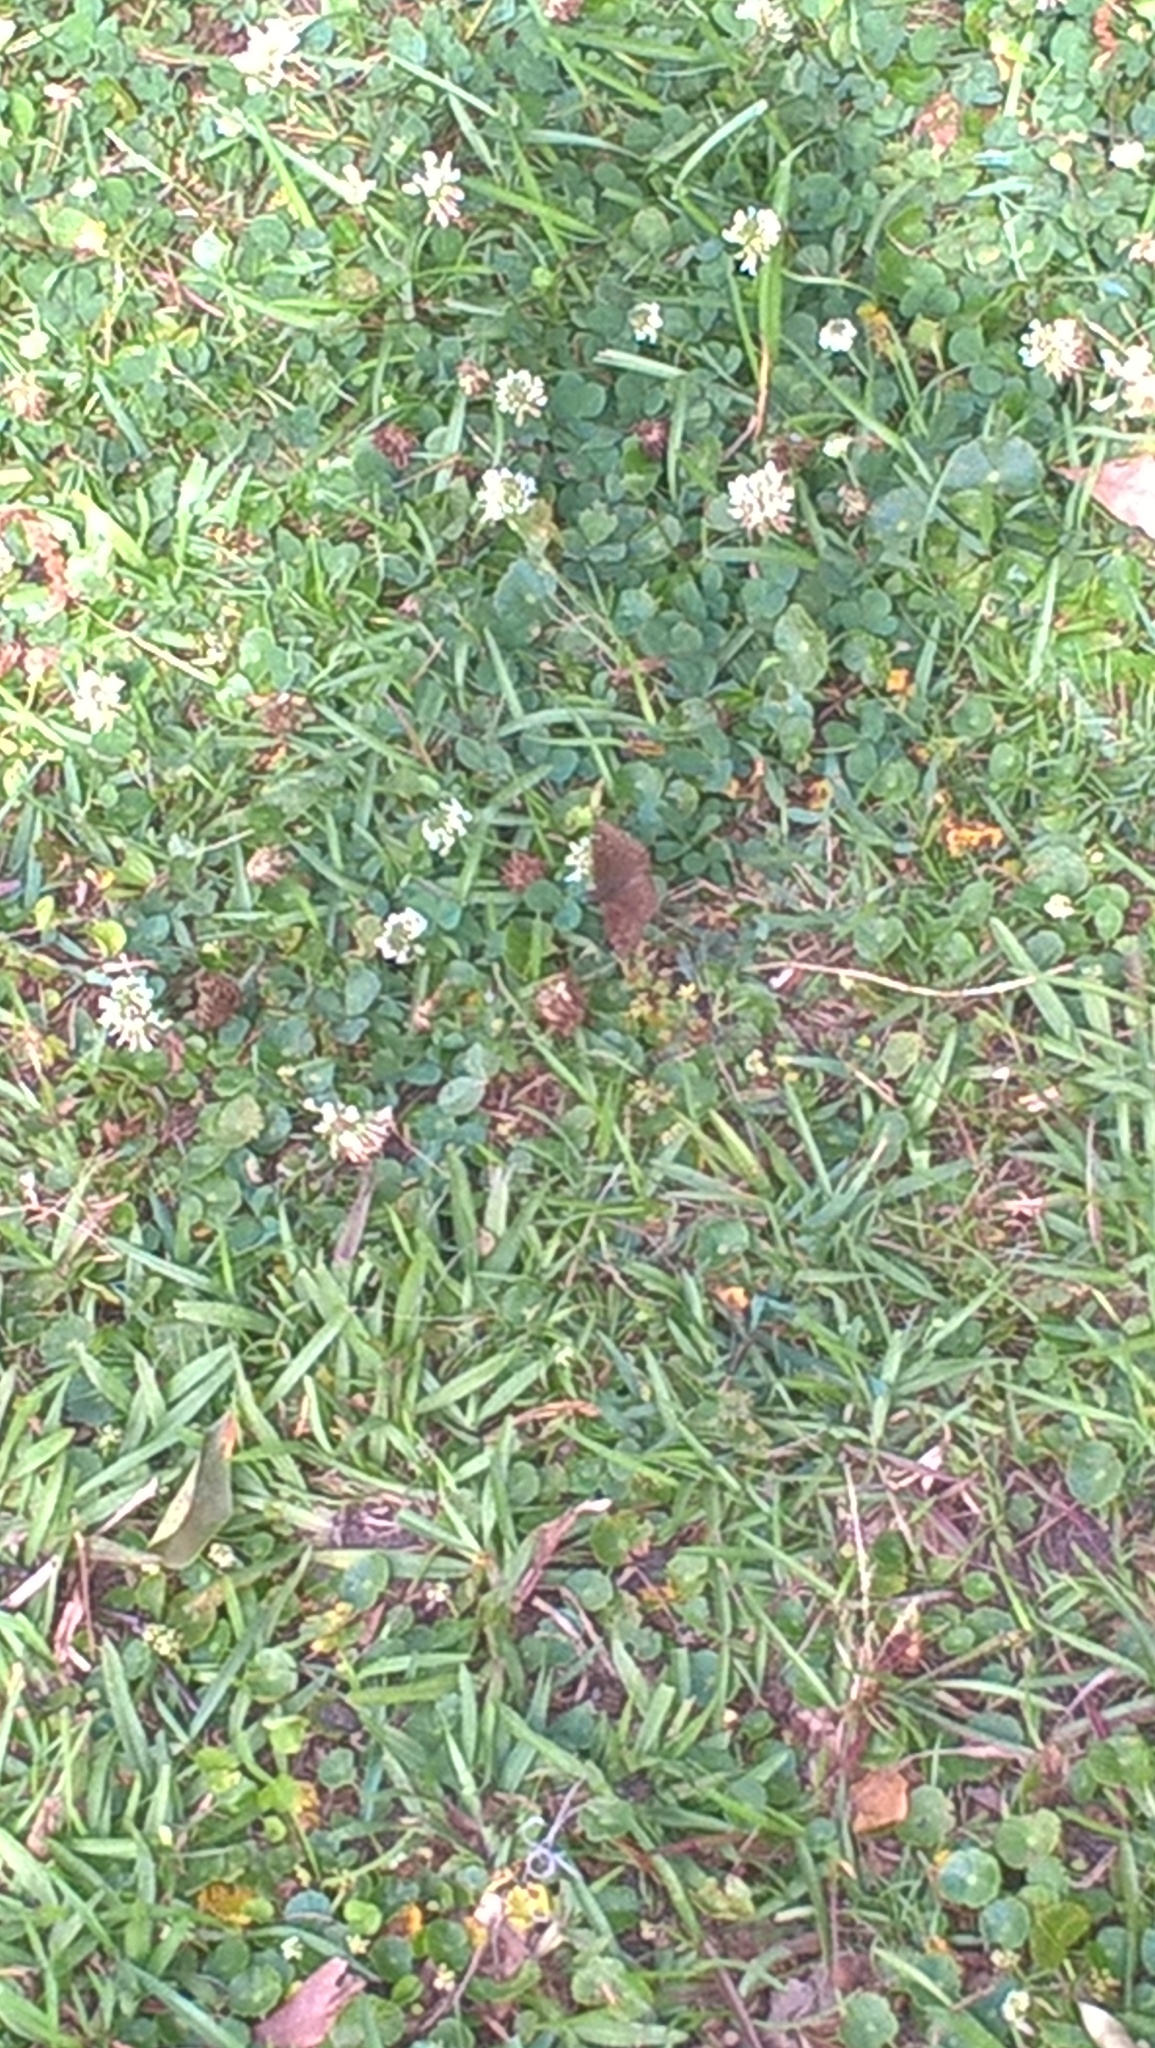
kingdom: Animalia
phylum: Arthropoda
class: Insecta
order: Lepidoptera
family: Hesperiidae
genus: Erynnis
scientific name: Erynnis horatius
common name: Horace's duskywing
